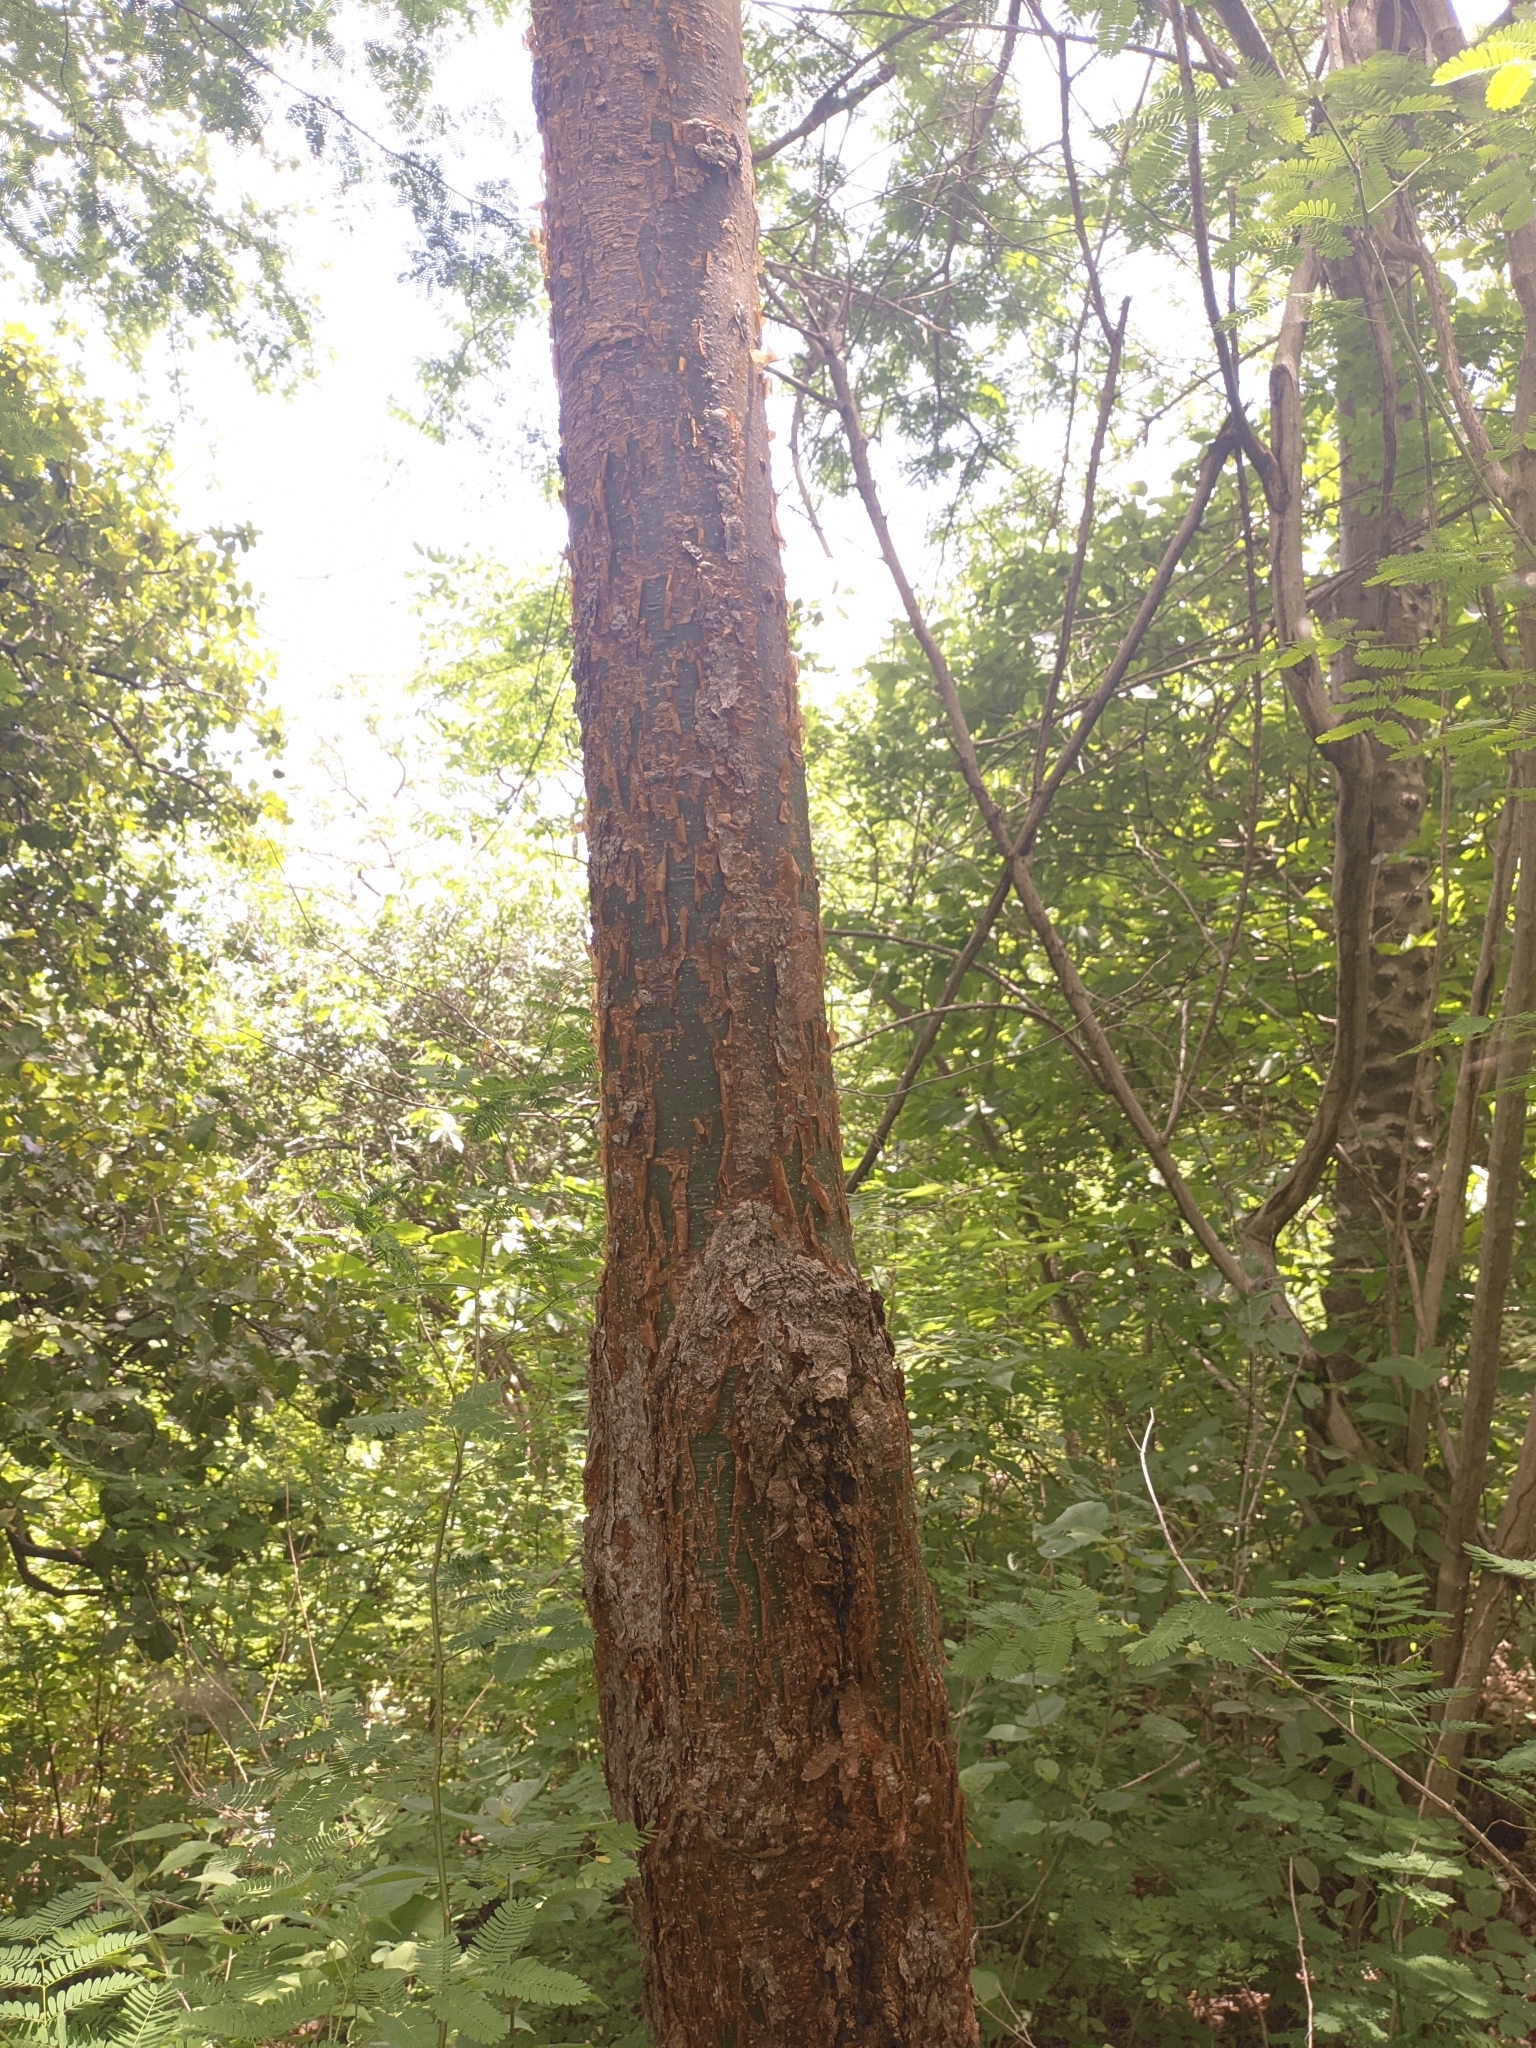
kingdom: Plantae
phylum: Tracheophyta
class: Magnoliopsida
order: Sapindales
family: Burseraceae
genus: Bursera
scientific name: Bursera simaruba
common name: Turpentine tree
